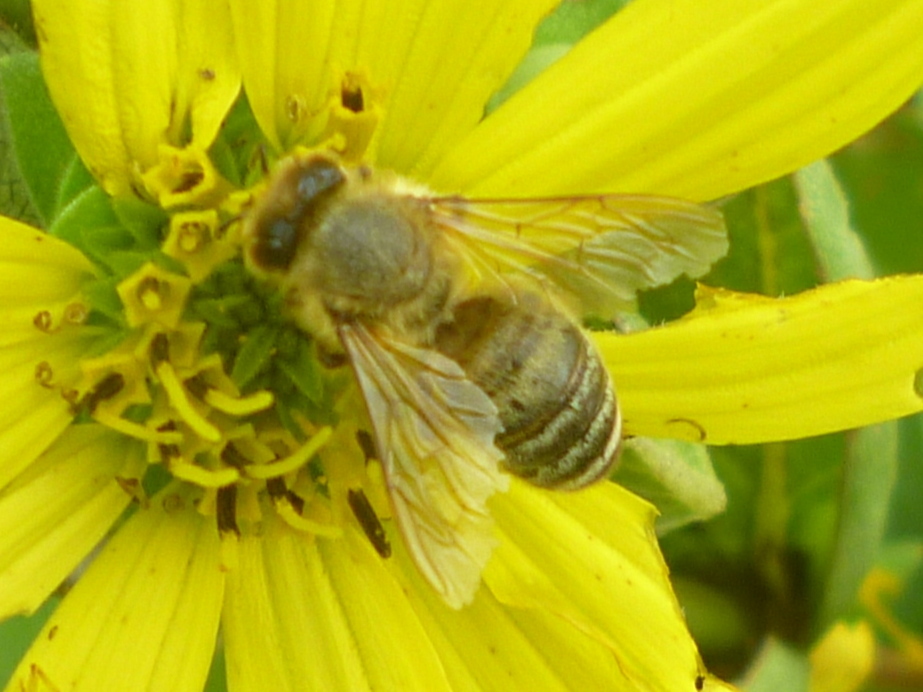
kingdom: Animalia
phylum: Arthropoda
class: Insecta
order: Hymenoptera
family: Apidae
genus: Apis
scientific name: Apis mellifera
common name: Honey bee
